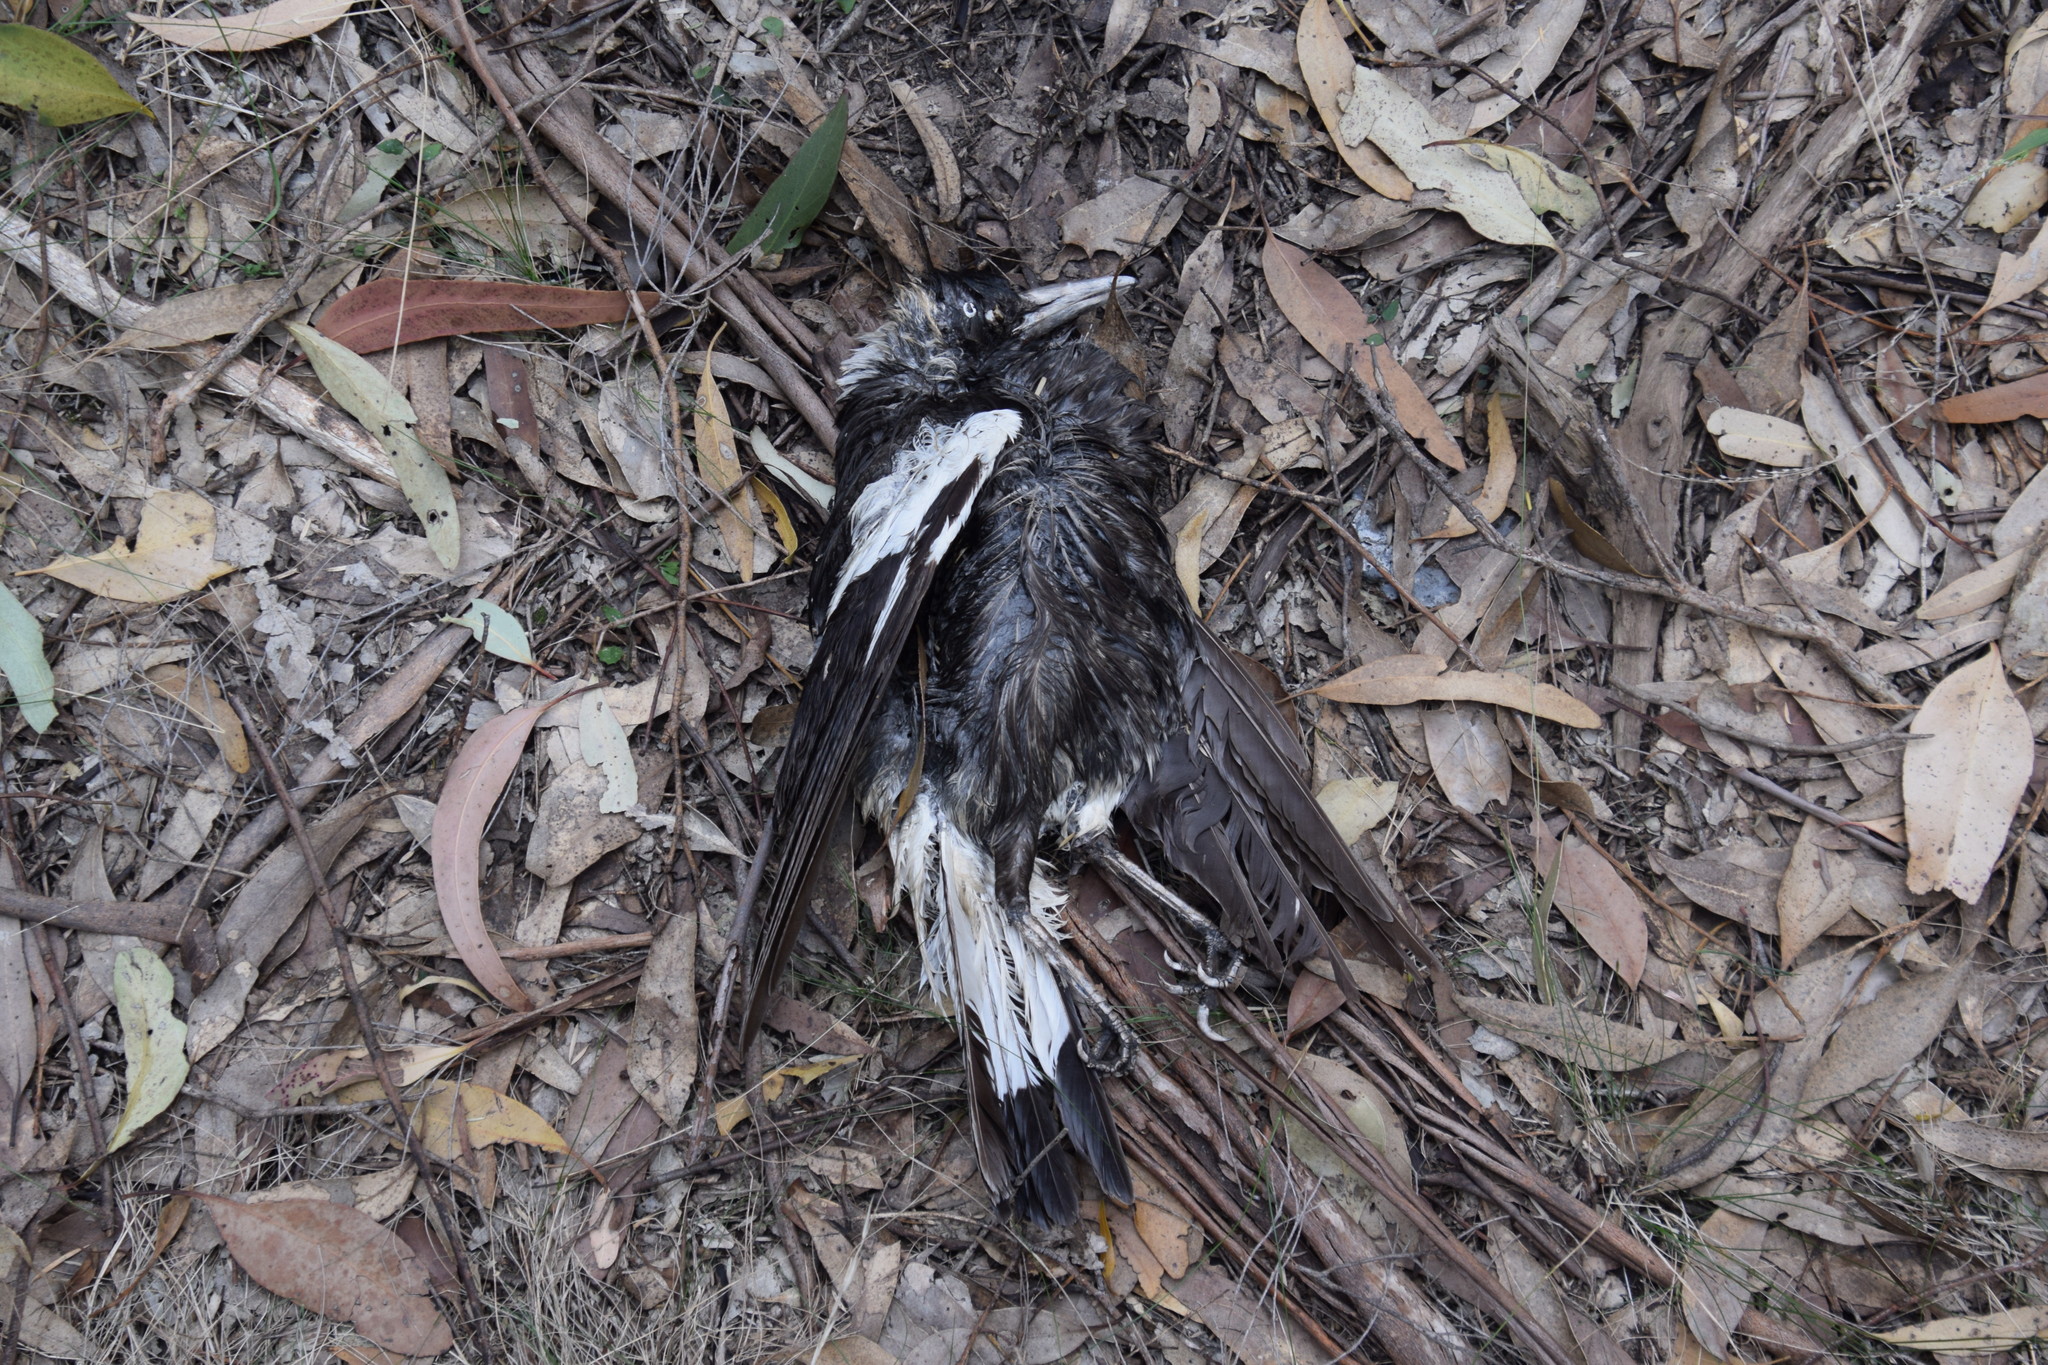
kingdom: Animalia
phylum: Chordata
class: Aves
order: Passeriformes
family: Cracticidae
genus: Gymnorhina
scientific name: Gymnorhina tibicen
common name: Australian magpie
